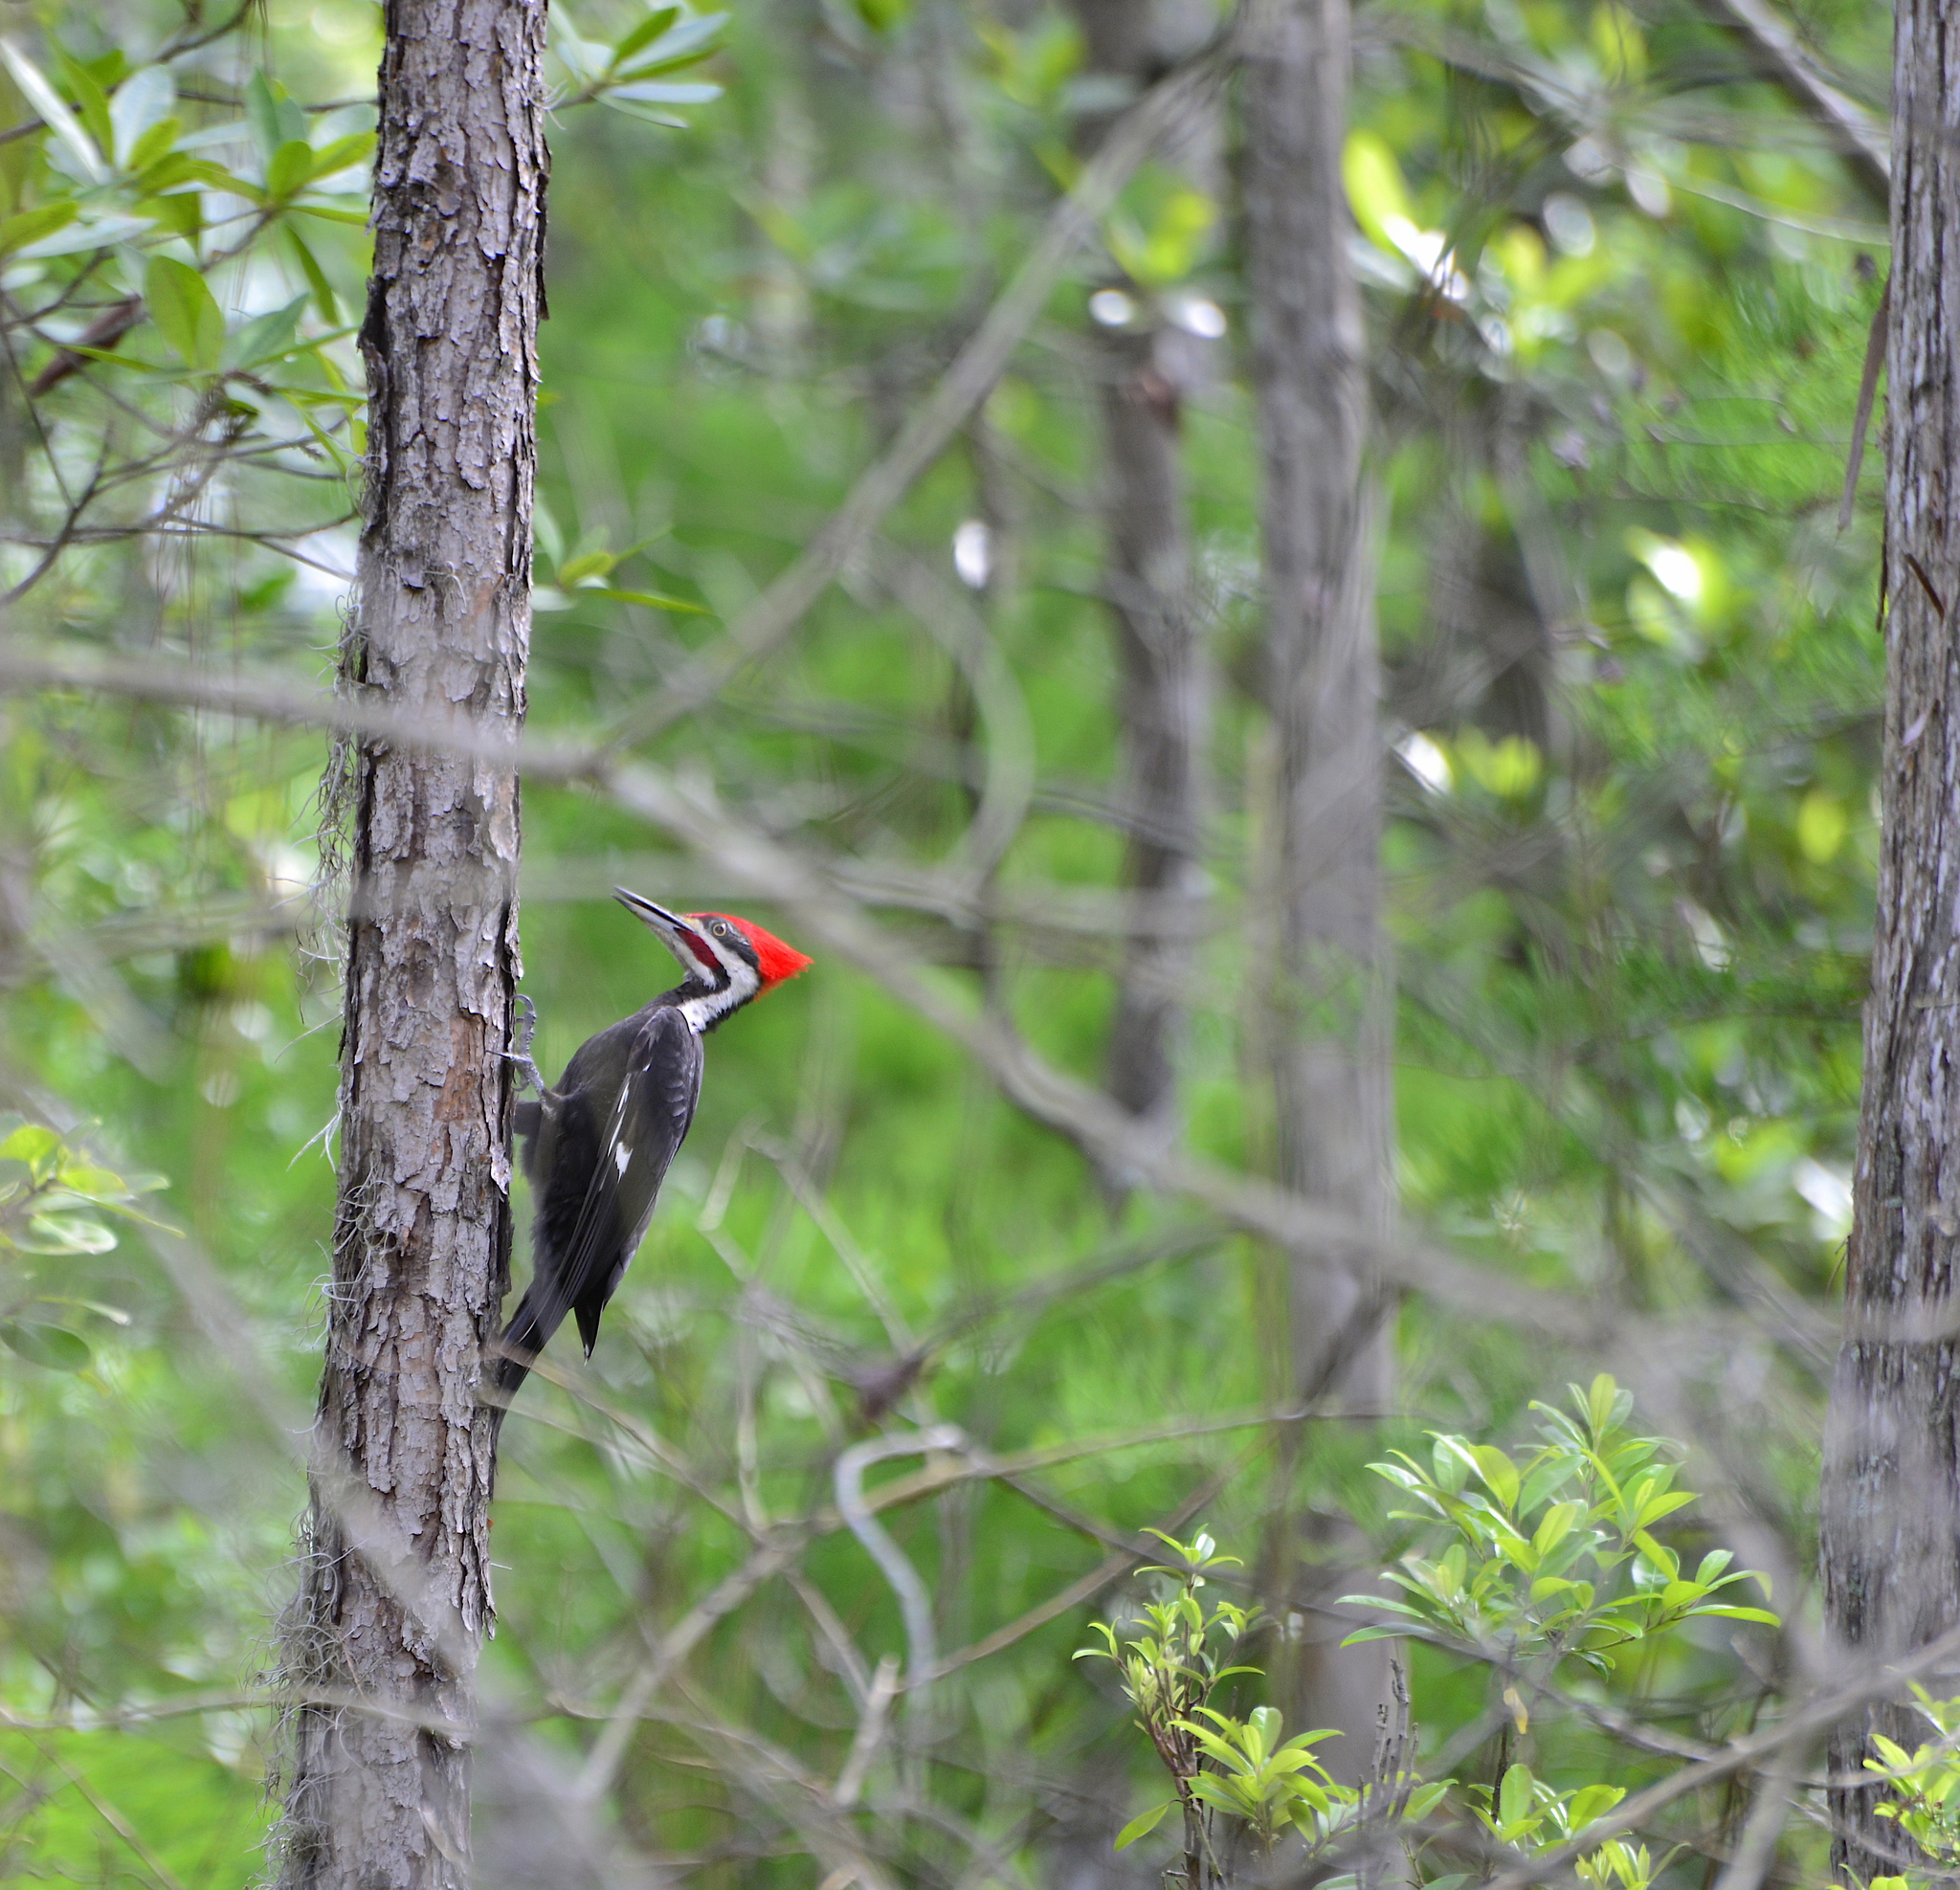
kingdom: Animalia
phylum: Chordata
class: Aves
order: Piciformes
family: Picidae
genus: Dryocopus
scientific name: Dryocopus pileatus
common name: Pileated woodpecker
